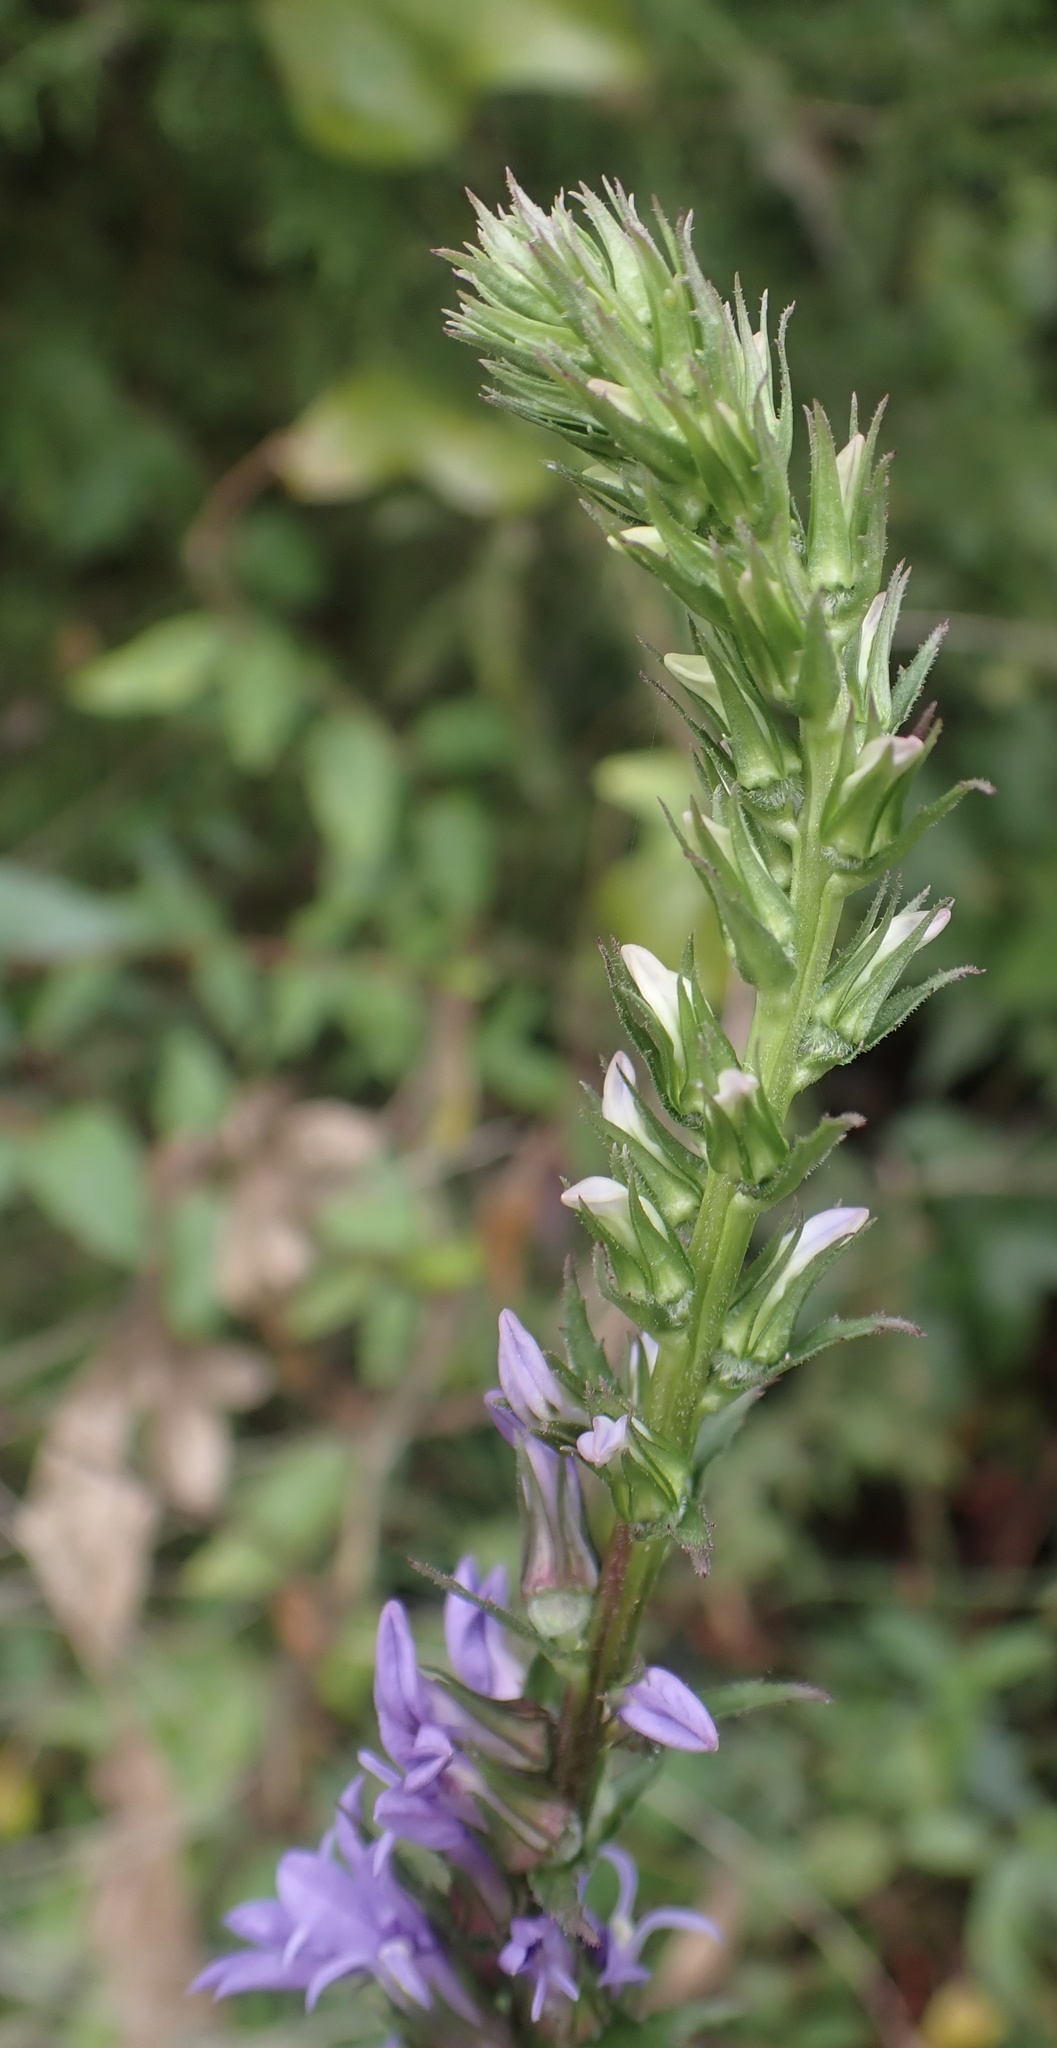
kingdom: Plantae
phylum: Tracheophyta
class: Magnoliopsida
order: Asterales
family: Campanulaceae
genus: Lobelia
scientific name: Lobelia puberula
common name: Purple dewdrop
